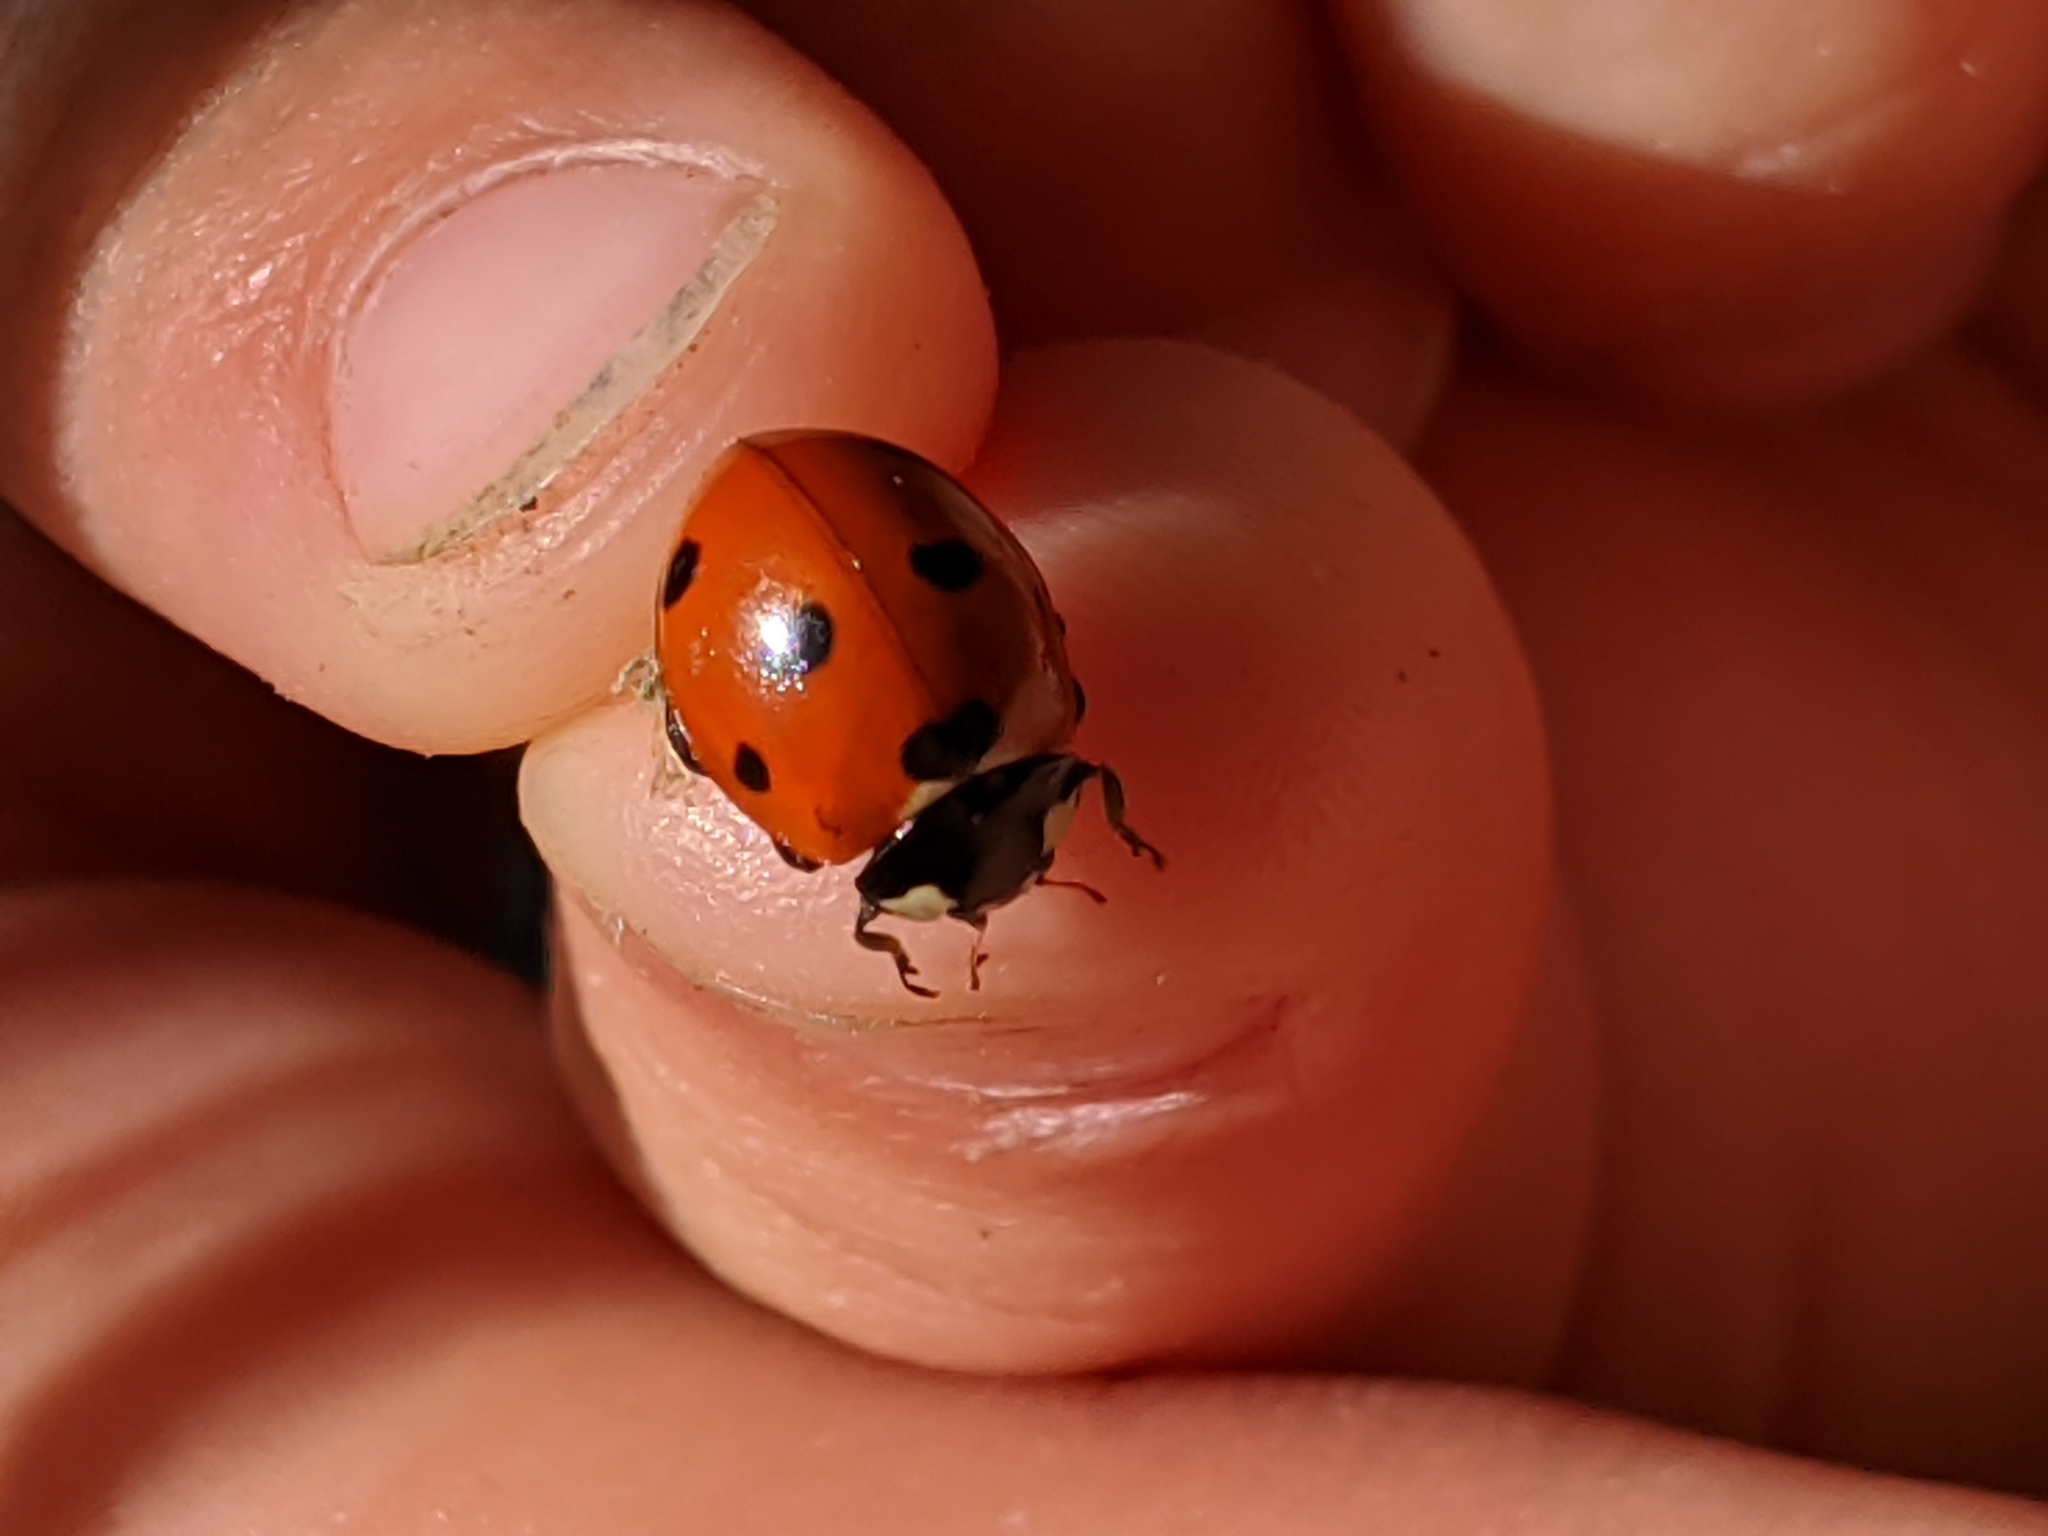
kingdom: Animalia
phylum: Arthropoda
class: Insecta
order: Coleoptera
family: Coccinellidae
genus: Coccinella
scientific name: Coccinella septempunctata
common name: Sevenspotted lady beetle
